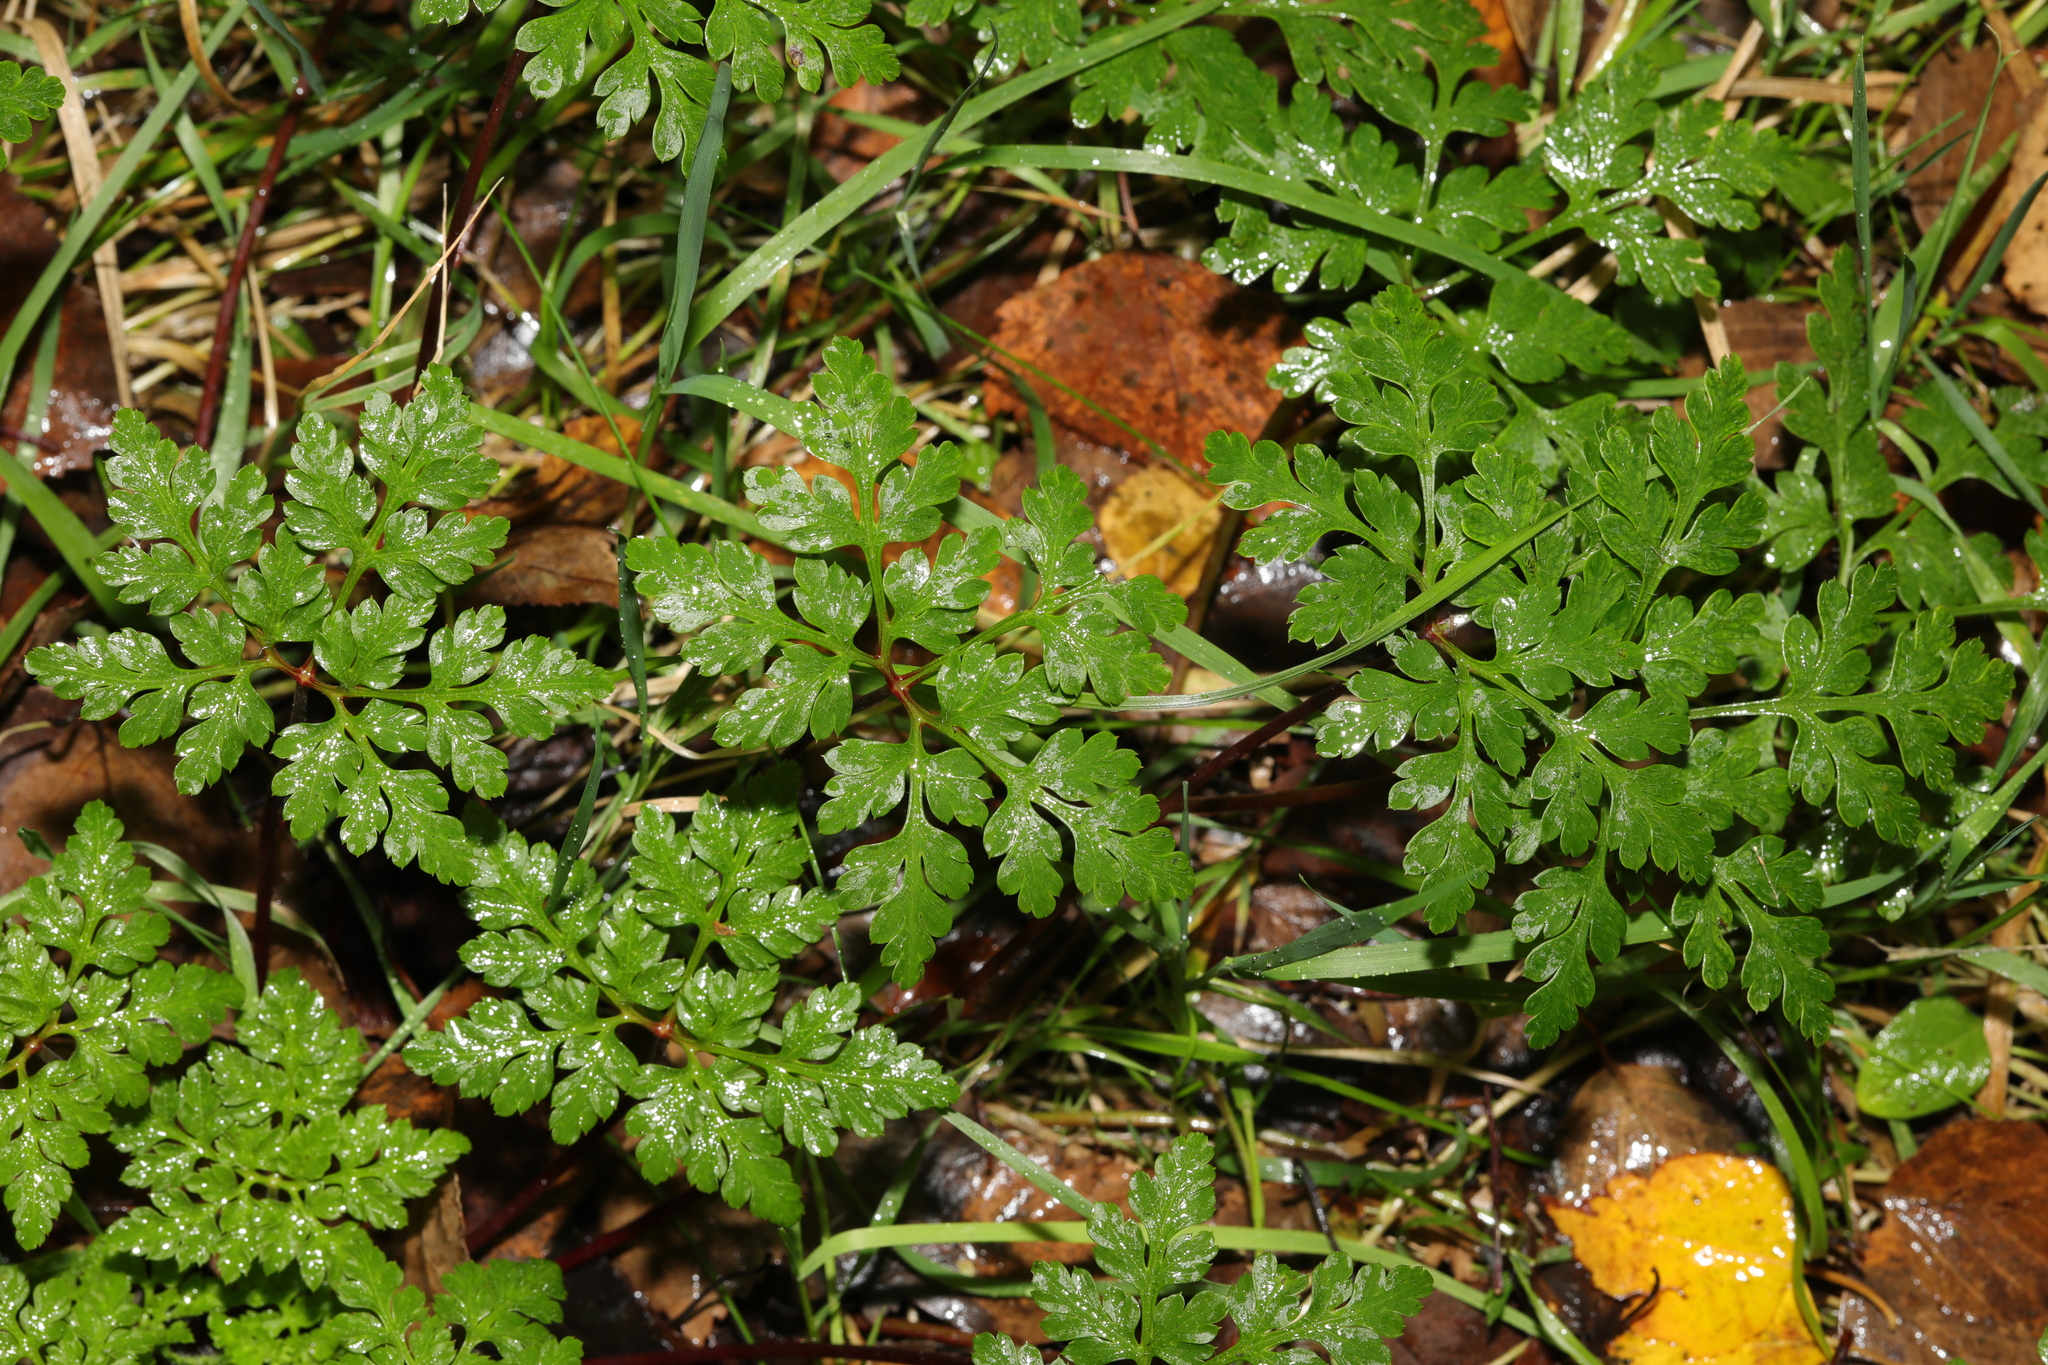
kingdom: Plantae
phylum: Tracheophyta
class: Magnoliopsida
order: Geraniales
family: Geraniaceae
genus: Geranium
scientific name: Geranium robertianum
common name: Herb-robert
